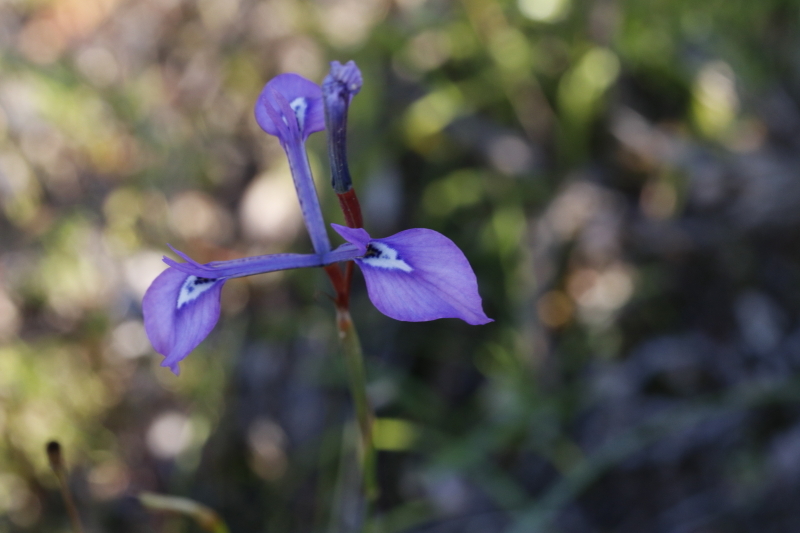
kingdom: Plantae
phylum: Tracheophyta
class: Liliopsida
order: Asparagales
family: Iridaceae
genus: Moraea
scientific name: Moraea tripetala
